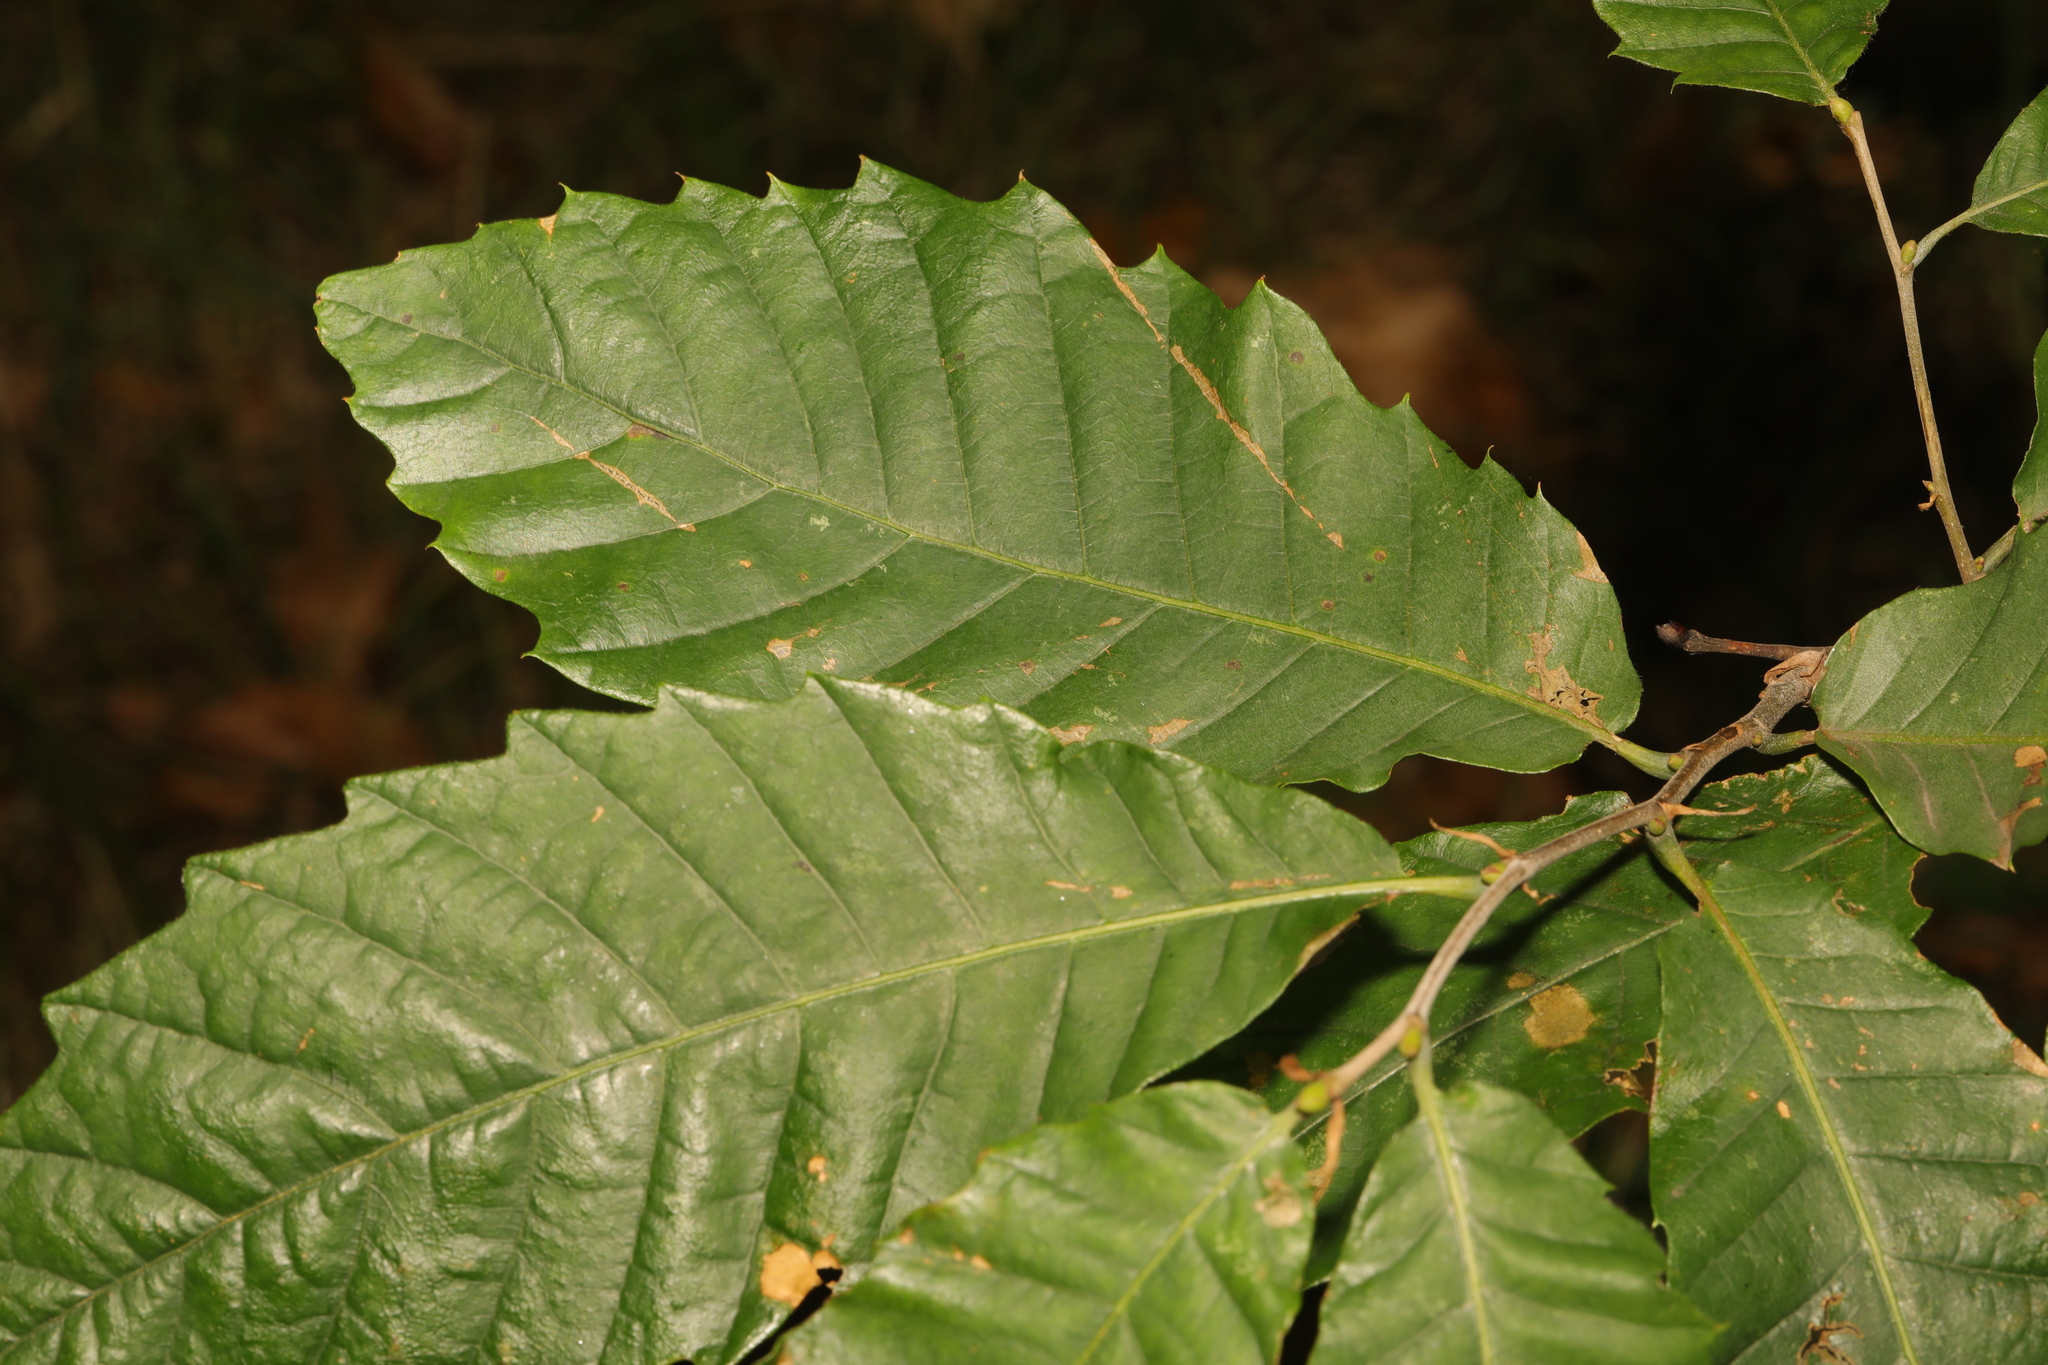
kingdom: Plantae
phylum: Tracheophyta
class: Magnoliopsida
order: Fagales
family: Fagaceae
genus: Castanea
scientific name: Castanea sativa
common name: Sweet chestnut
